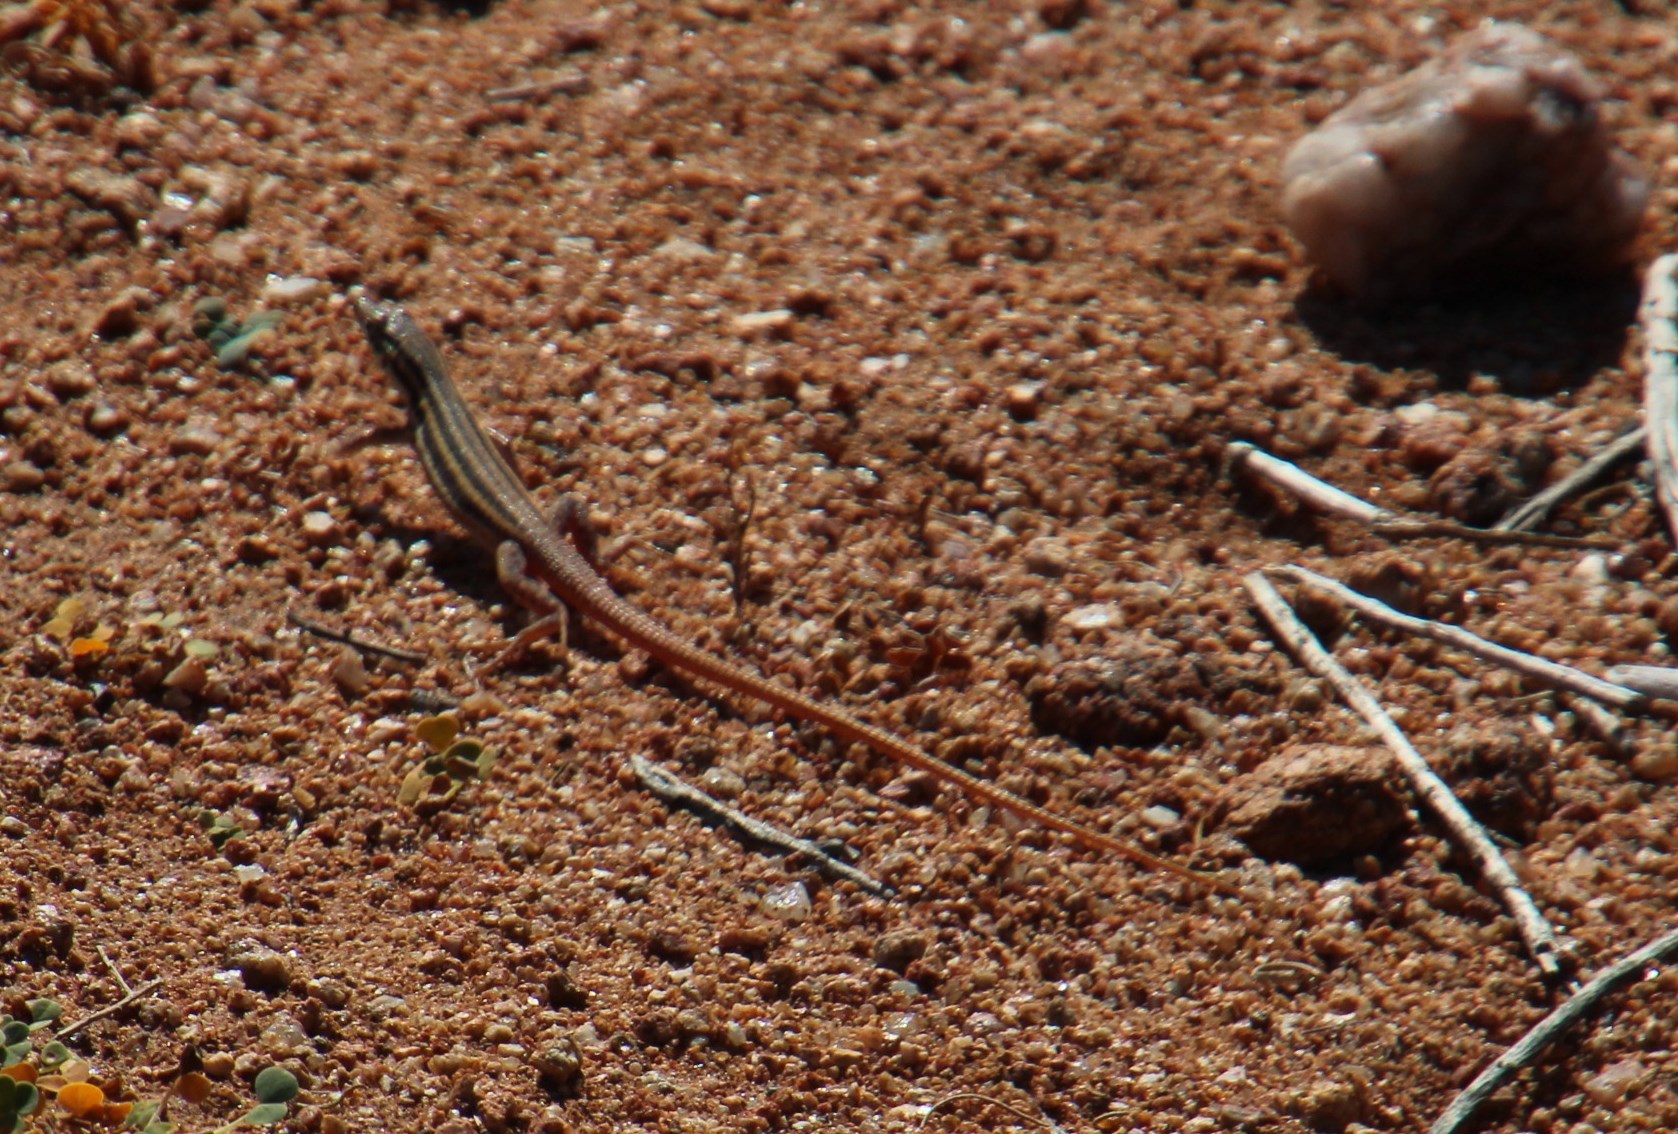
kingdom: Animalia
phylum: Chordata
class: Squamata
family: Lacertidae
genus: Pedioplanis
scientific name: Pedioplanis namaquensis
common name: Namaqua sand lizard
